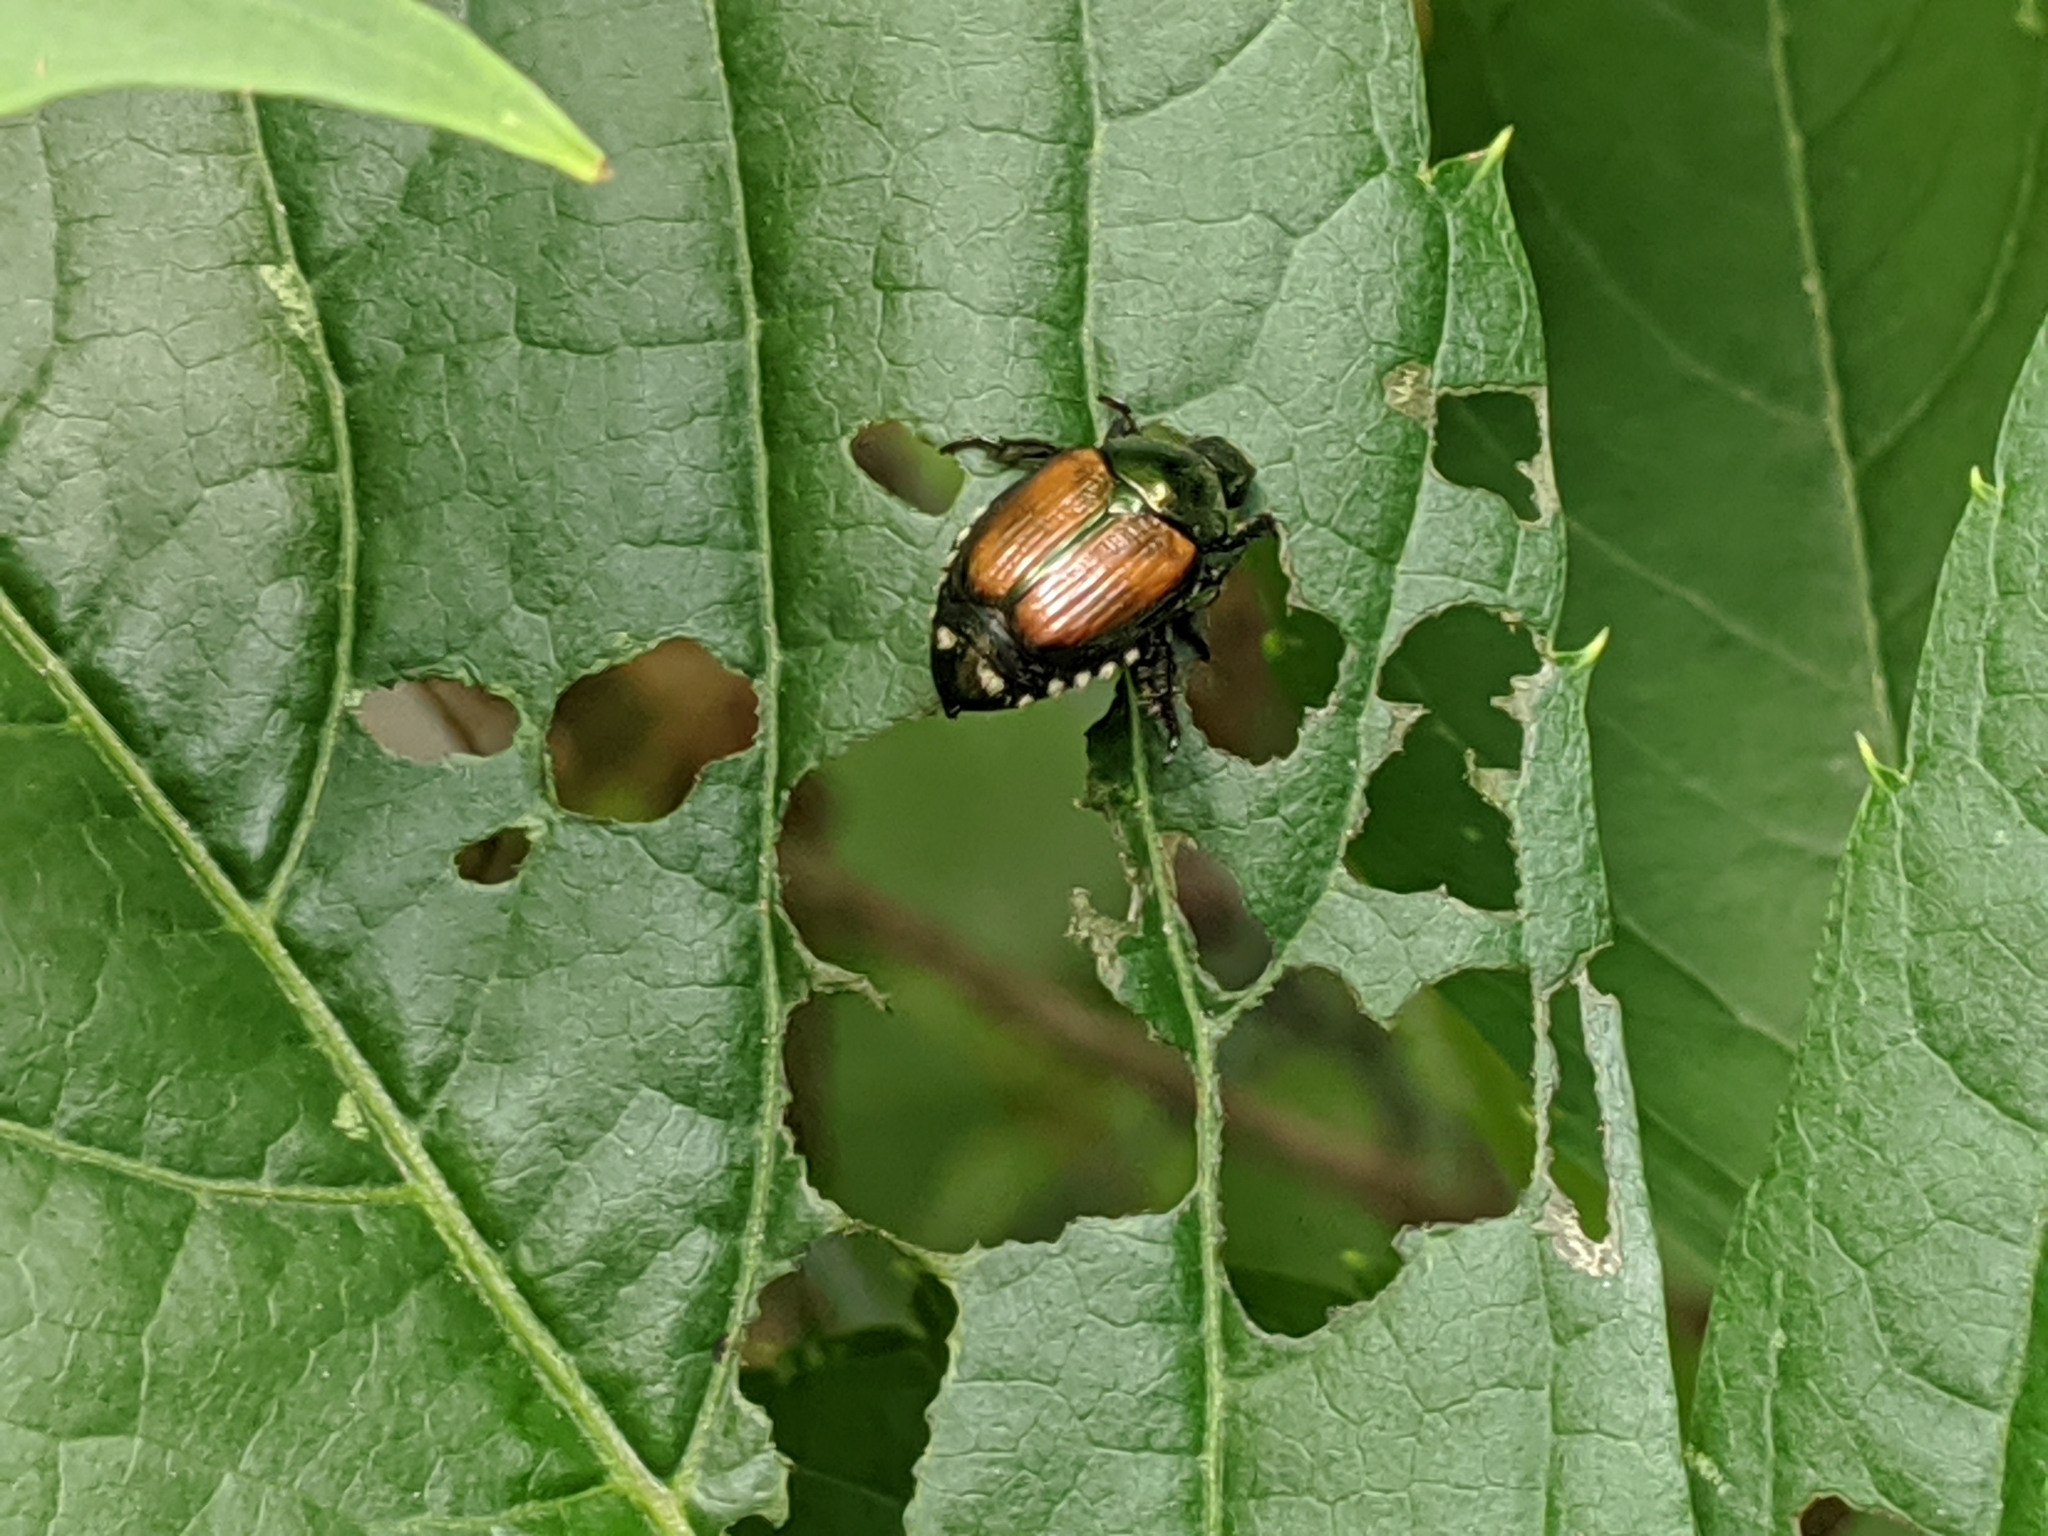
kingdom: Animalia
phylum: Arthropoda
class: Insecta
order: Coleoptera
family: Scarabaeidae
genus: Popillia
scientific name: Popillia japonica
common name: Japanese beetle
